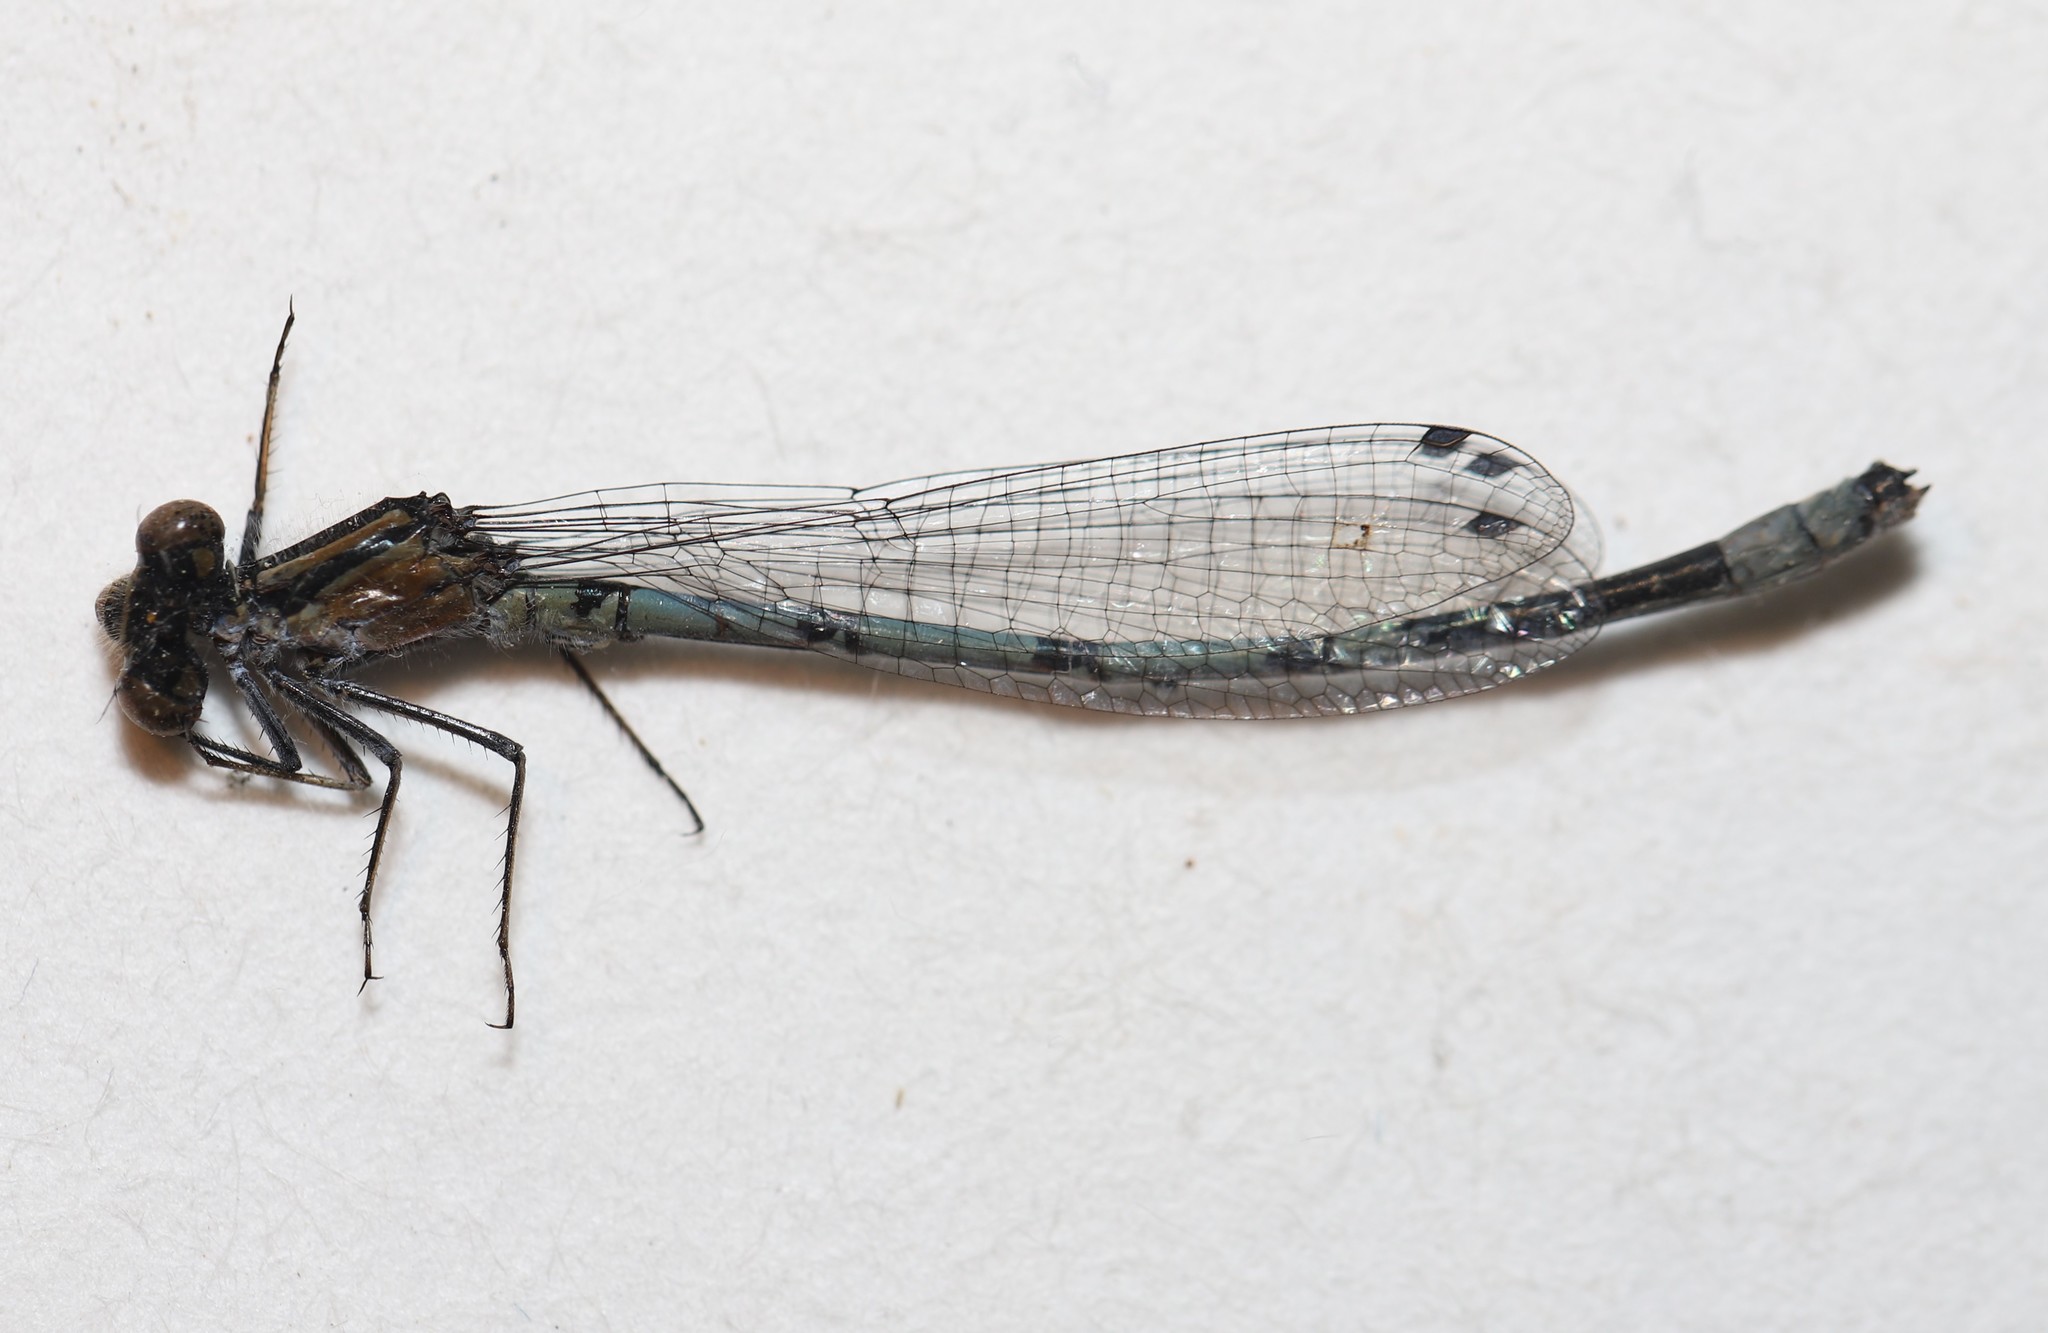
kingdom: Animalia
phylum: Arthropoda
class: Insecta
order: Odonata
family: Coenagrionidae
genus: Enallagma
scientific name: Enallagma hageni
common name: Hagen's bluet
